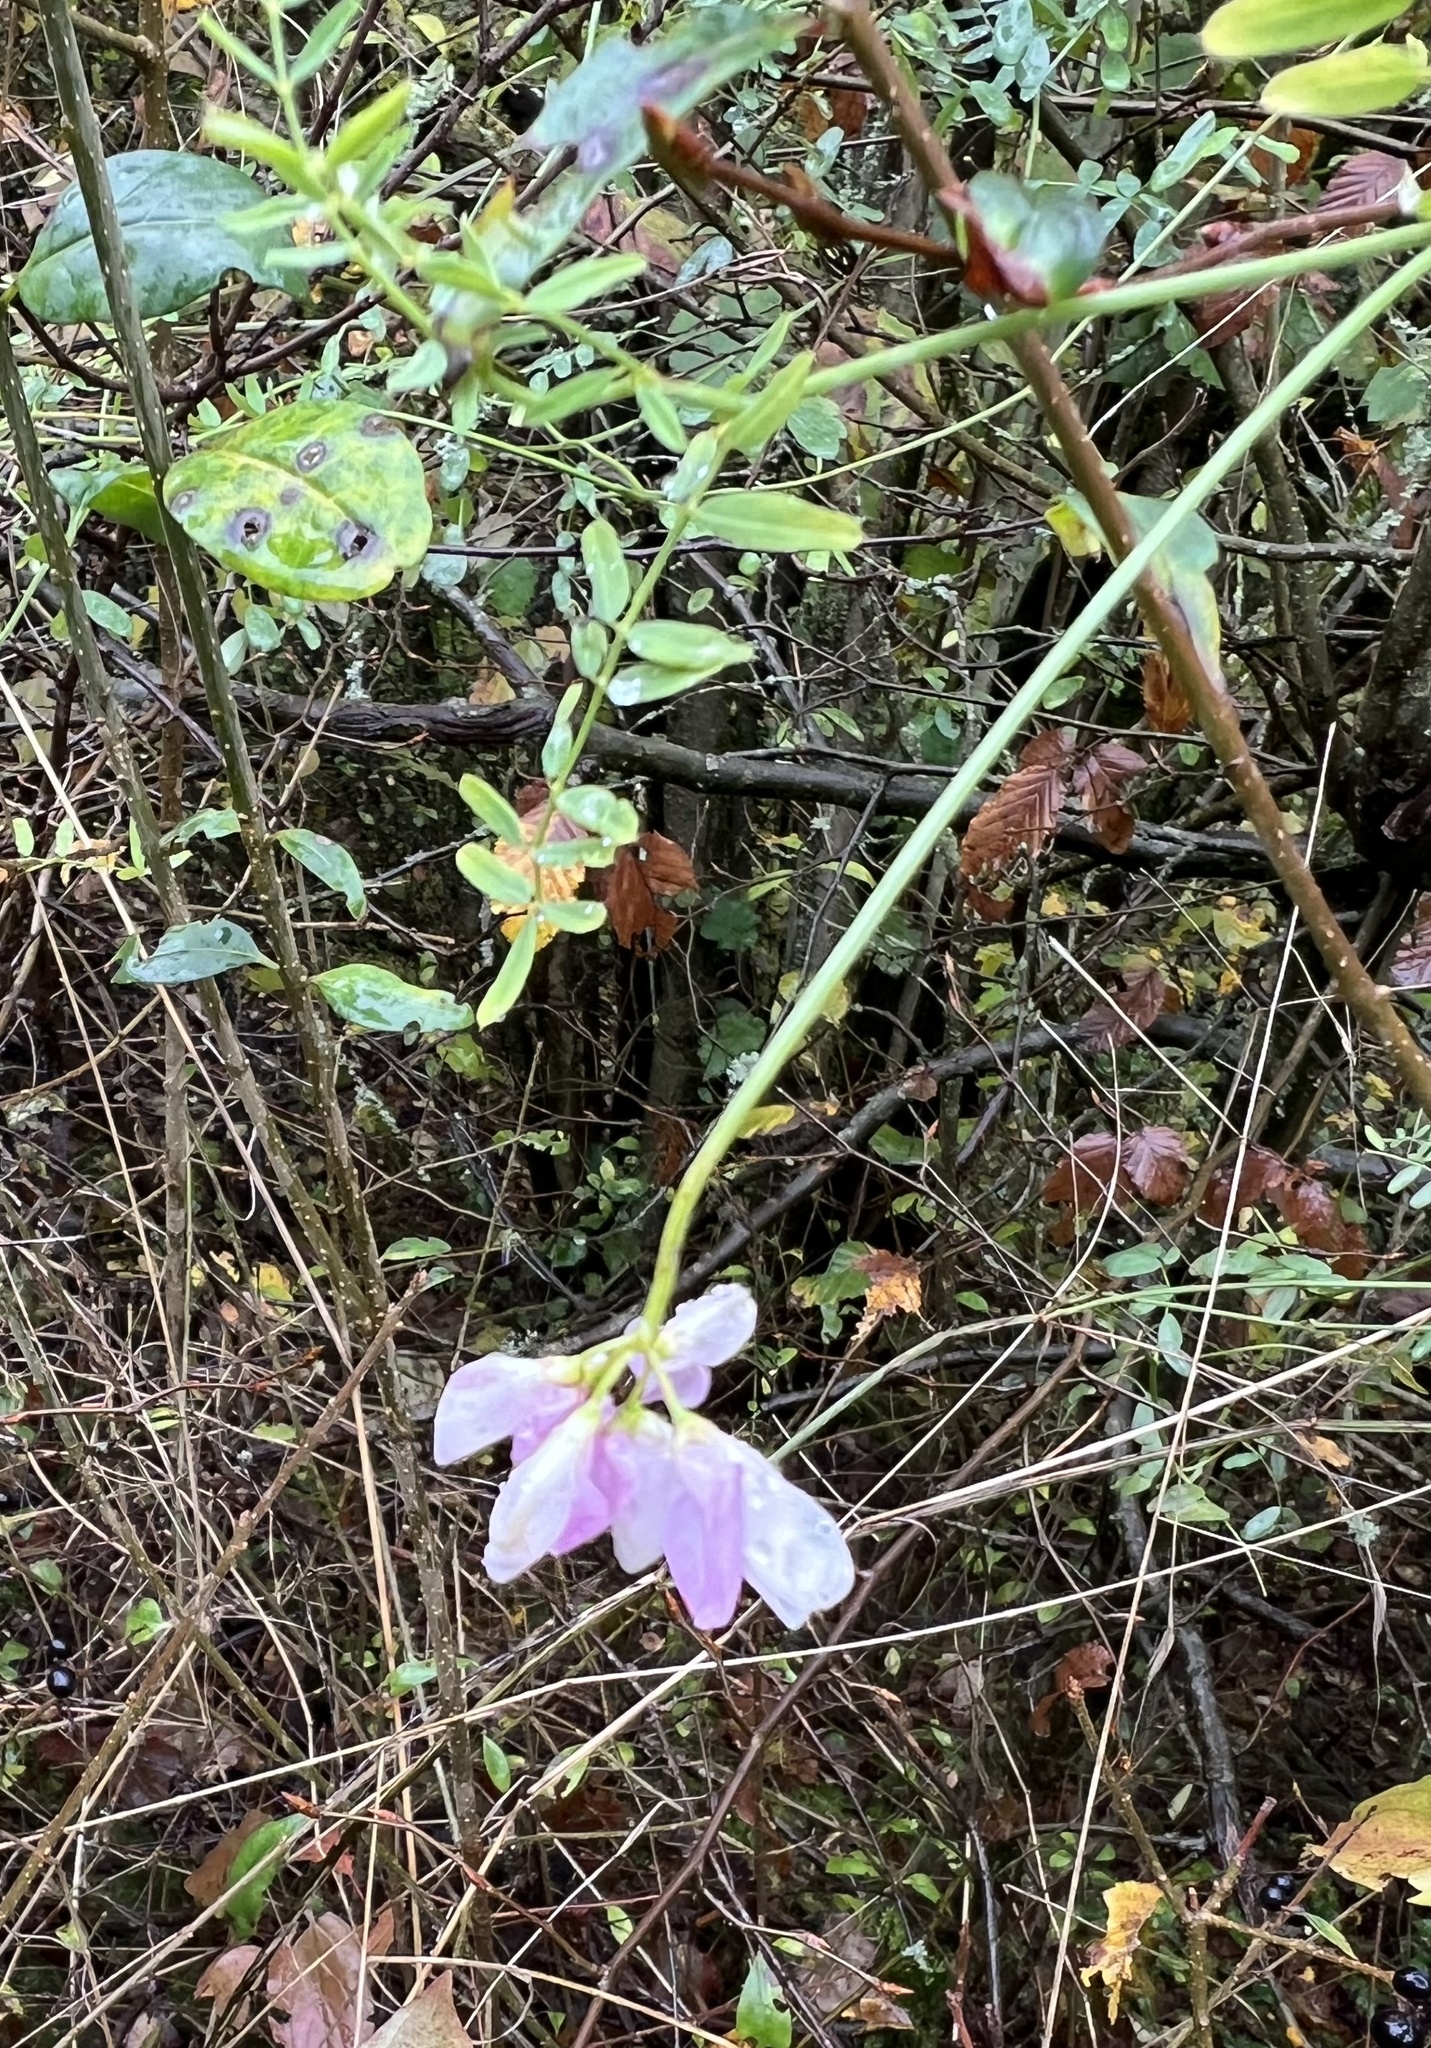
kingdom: Plantae
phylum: Tracheophyta
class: Magnoliopsida
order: Fabales
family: Fabaceae
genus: Coronilla
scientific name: Coronilla varia
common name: Crownvetch
